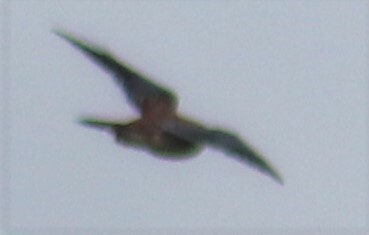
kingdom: Animalia
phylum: Chordata
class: Aves
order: Falconiformes
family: Falconidae
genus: Falco
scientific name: Falco sparverius
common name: American kestrel
